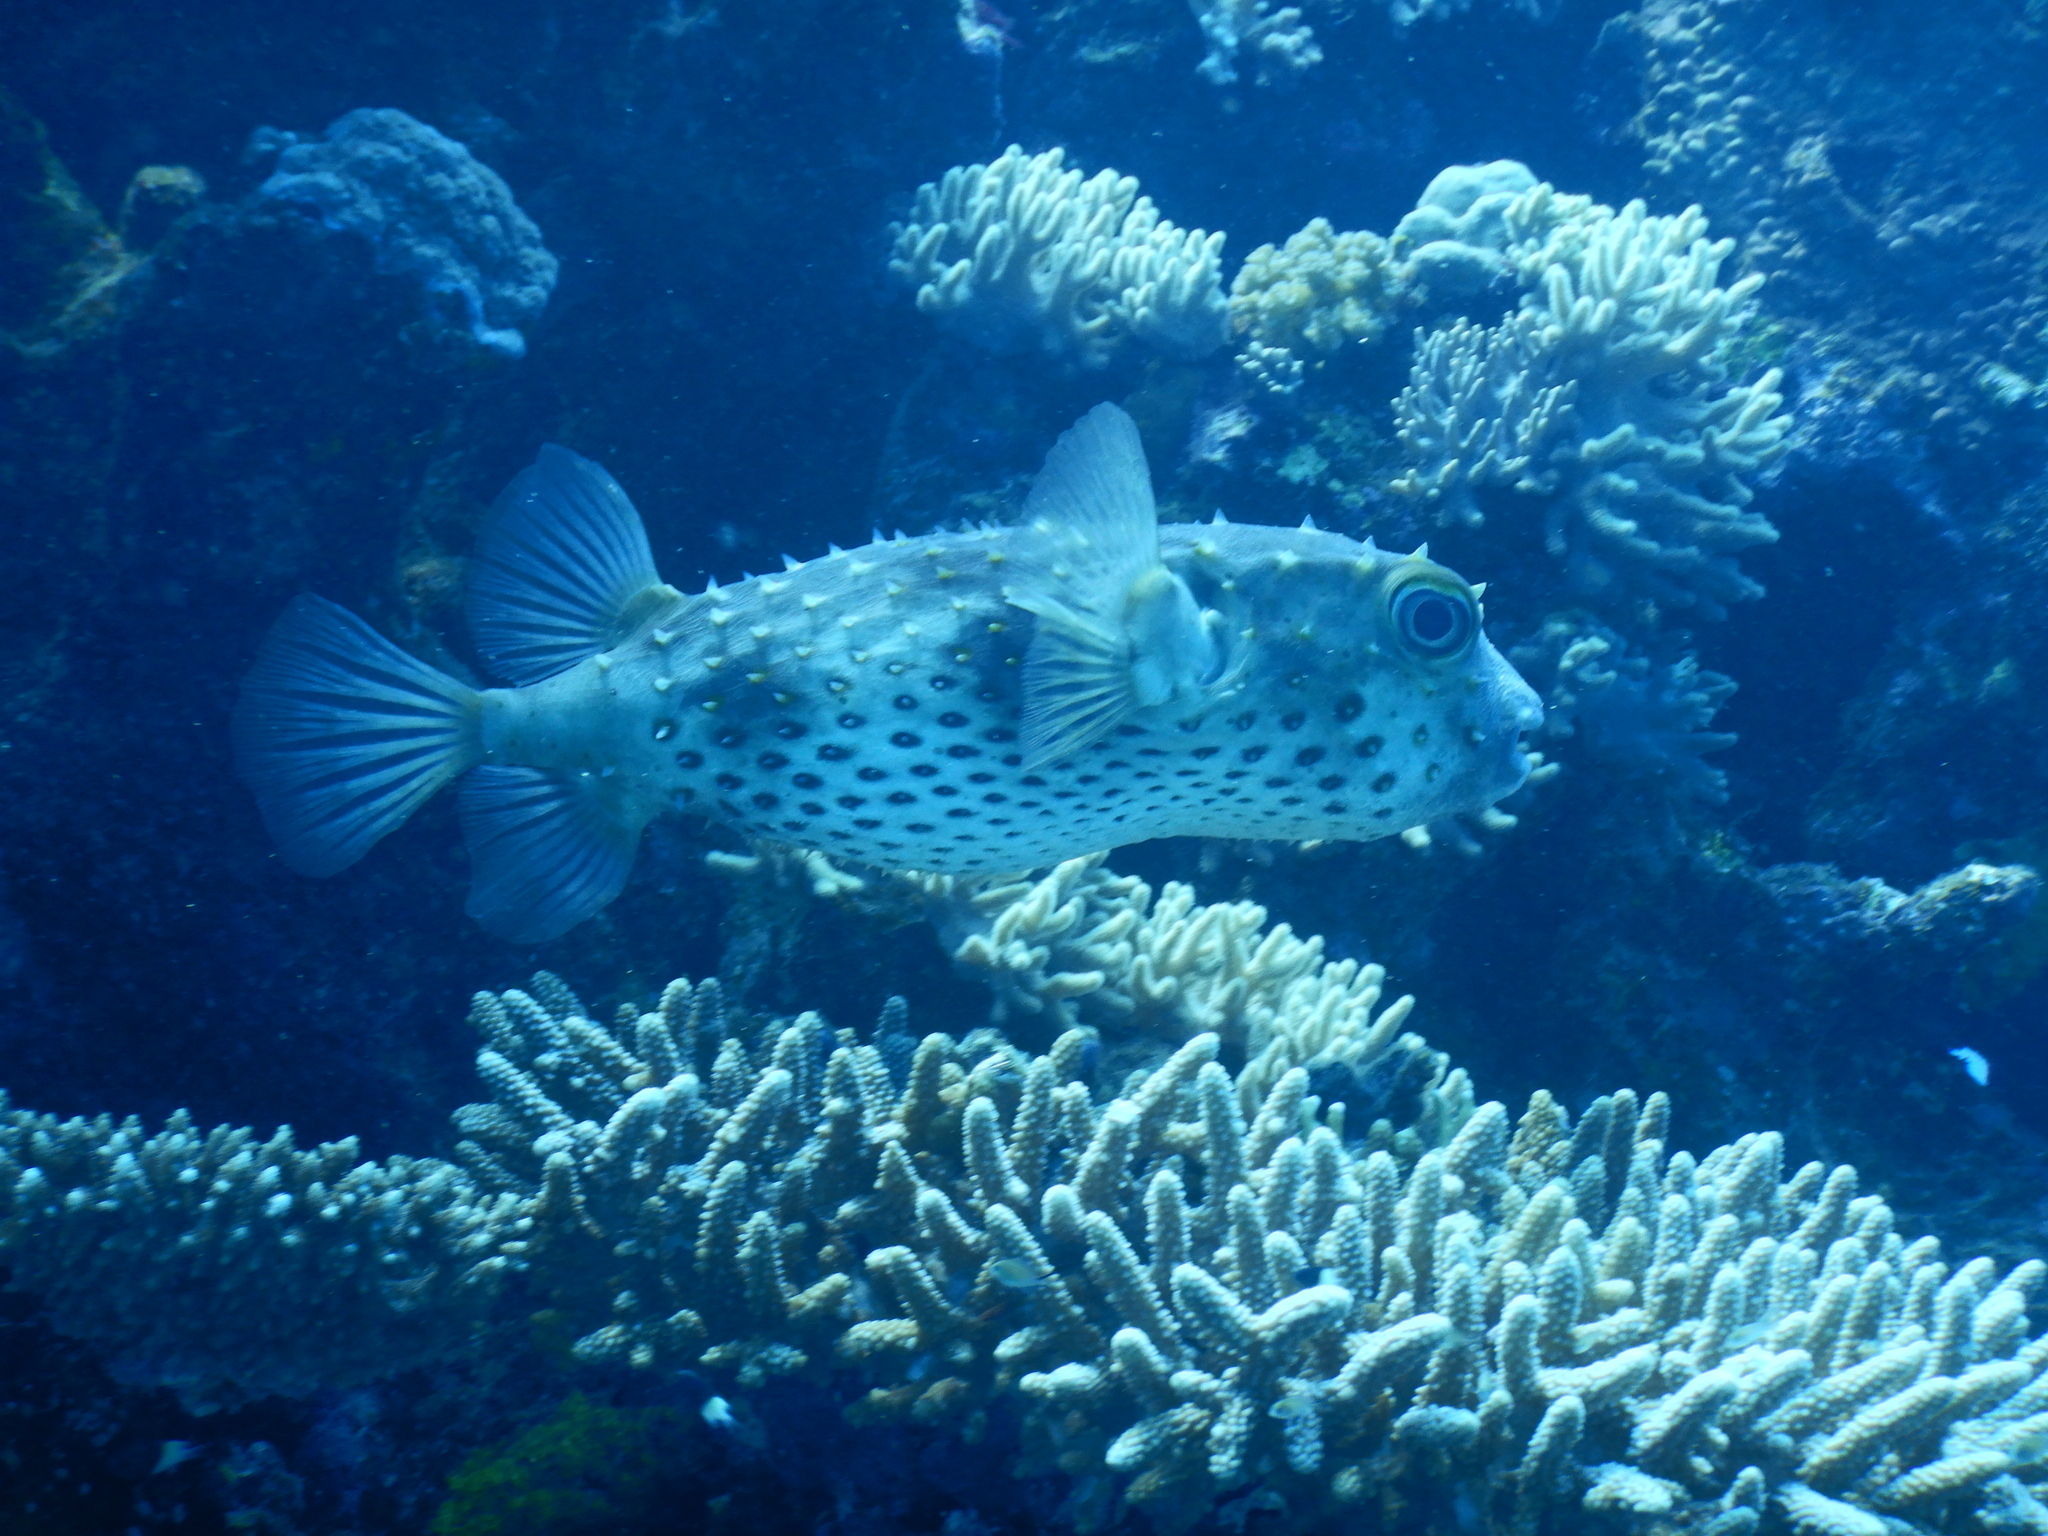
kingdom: Animalia
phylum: Chordata
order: Tetraodontiformes
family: Diodontidae
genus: Cyclichthys
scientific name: Cyclichthys spilostylus
